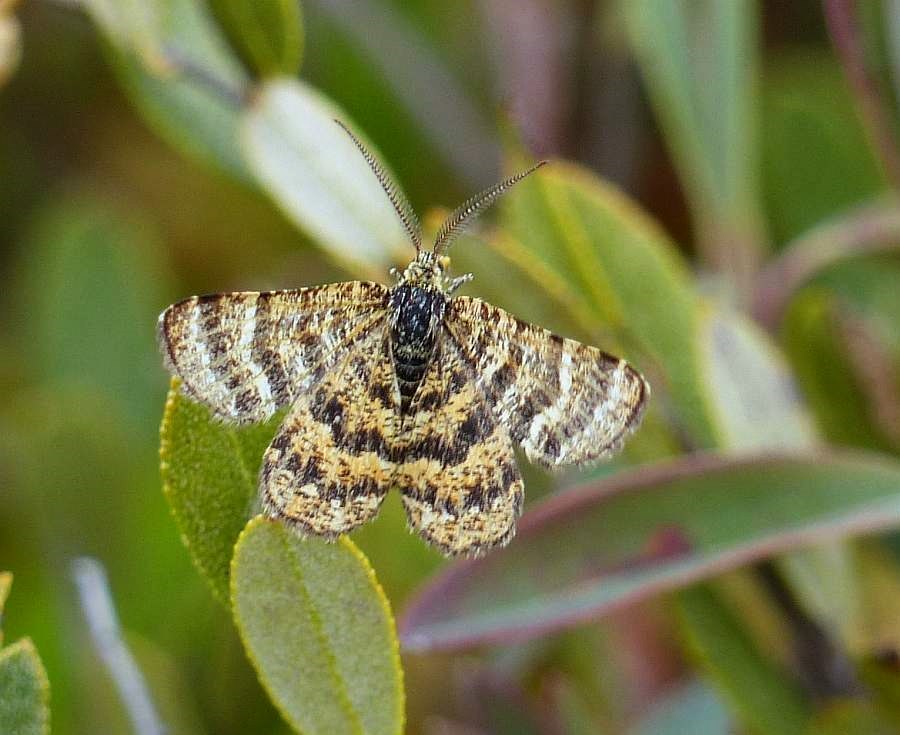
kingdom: Animalia
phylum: Arthropoda
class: Insecta
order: Lepidoptera
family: Geometridae
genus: Macaria
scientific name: Macaria truncataria
